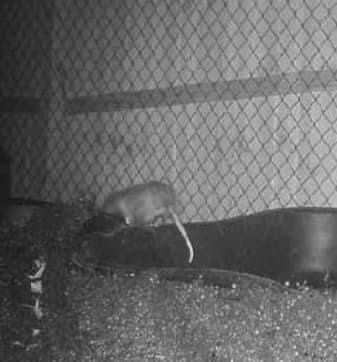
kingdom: Animalia
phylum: Chordata
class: Mammalia
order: Didelphimorphia
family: Didelphidae
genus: Didelphis
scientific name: Didelphis virginiana
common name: Virginia opossum
